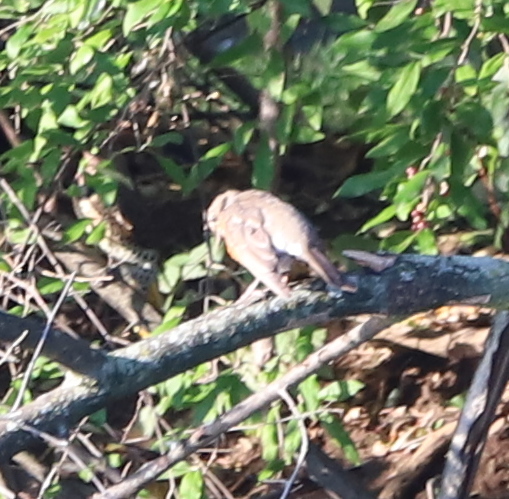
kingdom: Animalia
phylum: Chordata
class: Aves
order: Passeriformes
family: Turdidae
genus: Turdus
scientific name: Turdus migratorius
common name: American robin
